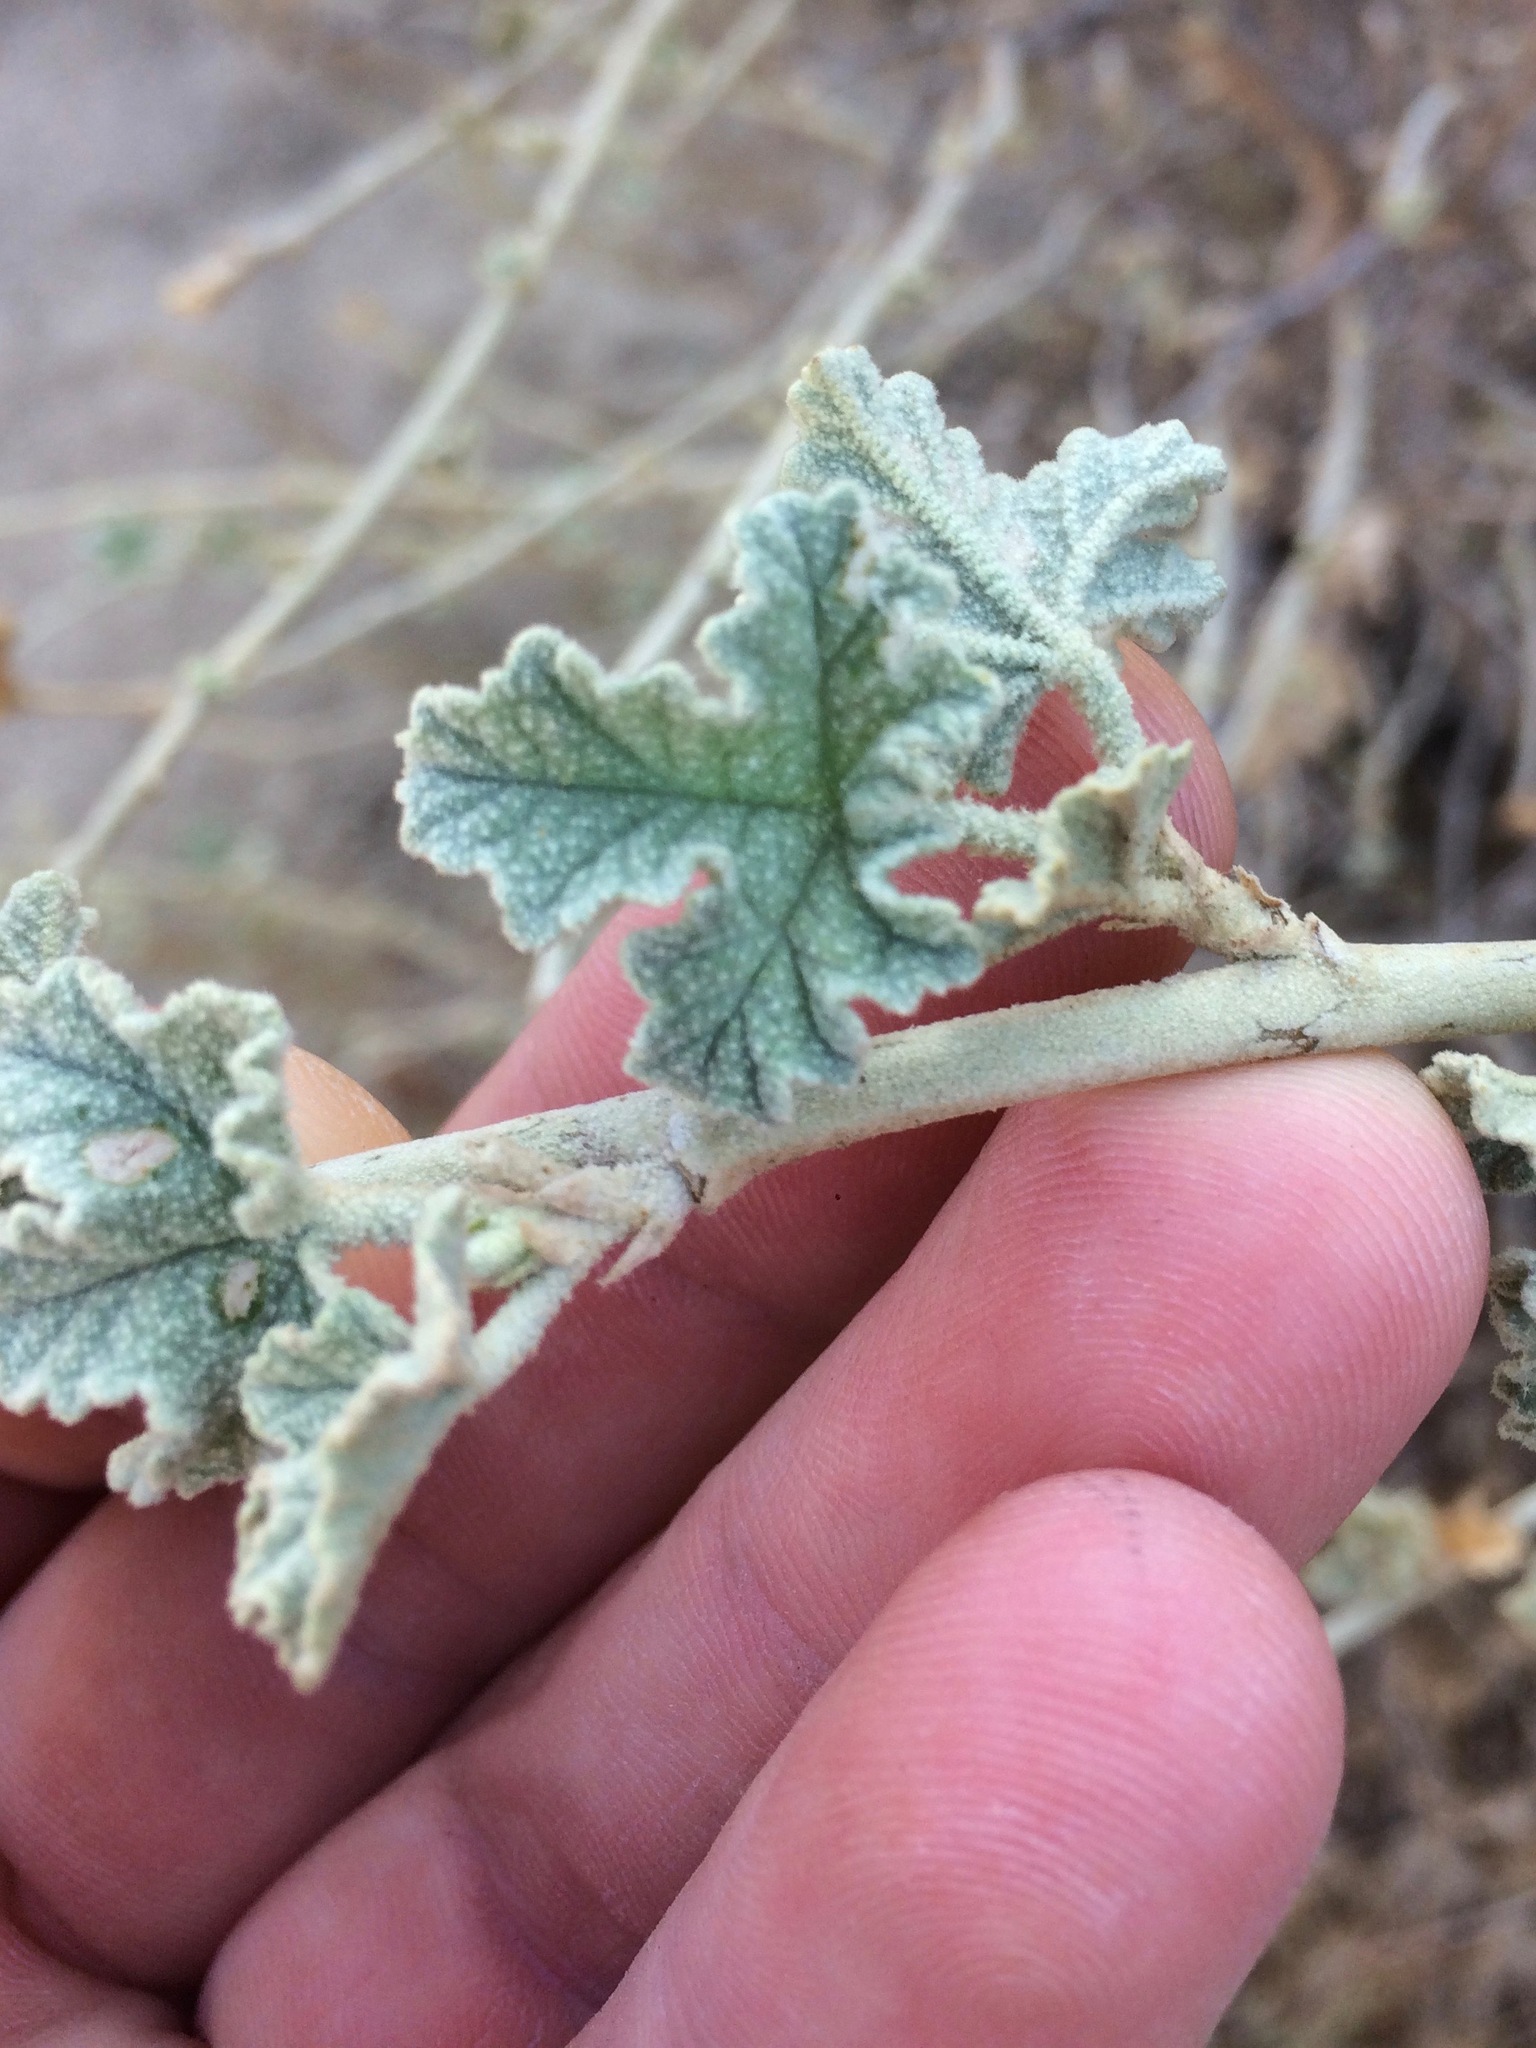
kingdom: Plantae
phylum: Tracheophyta
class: Magnoliopsida
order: Malvales
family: Malvaceae
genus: Malacothamnus
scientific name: Malacothamnus fasciculatus
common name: Sant cruz island bush-mallow
